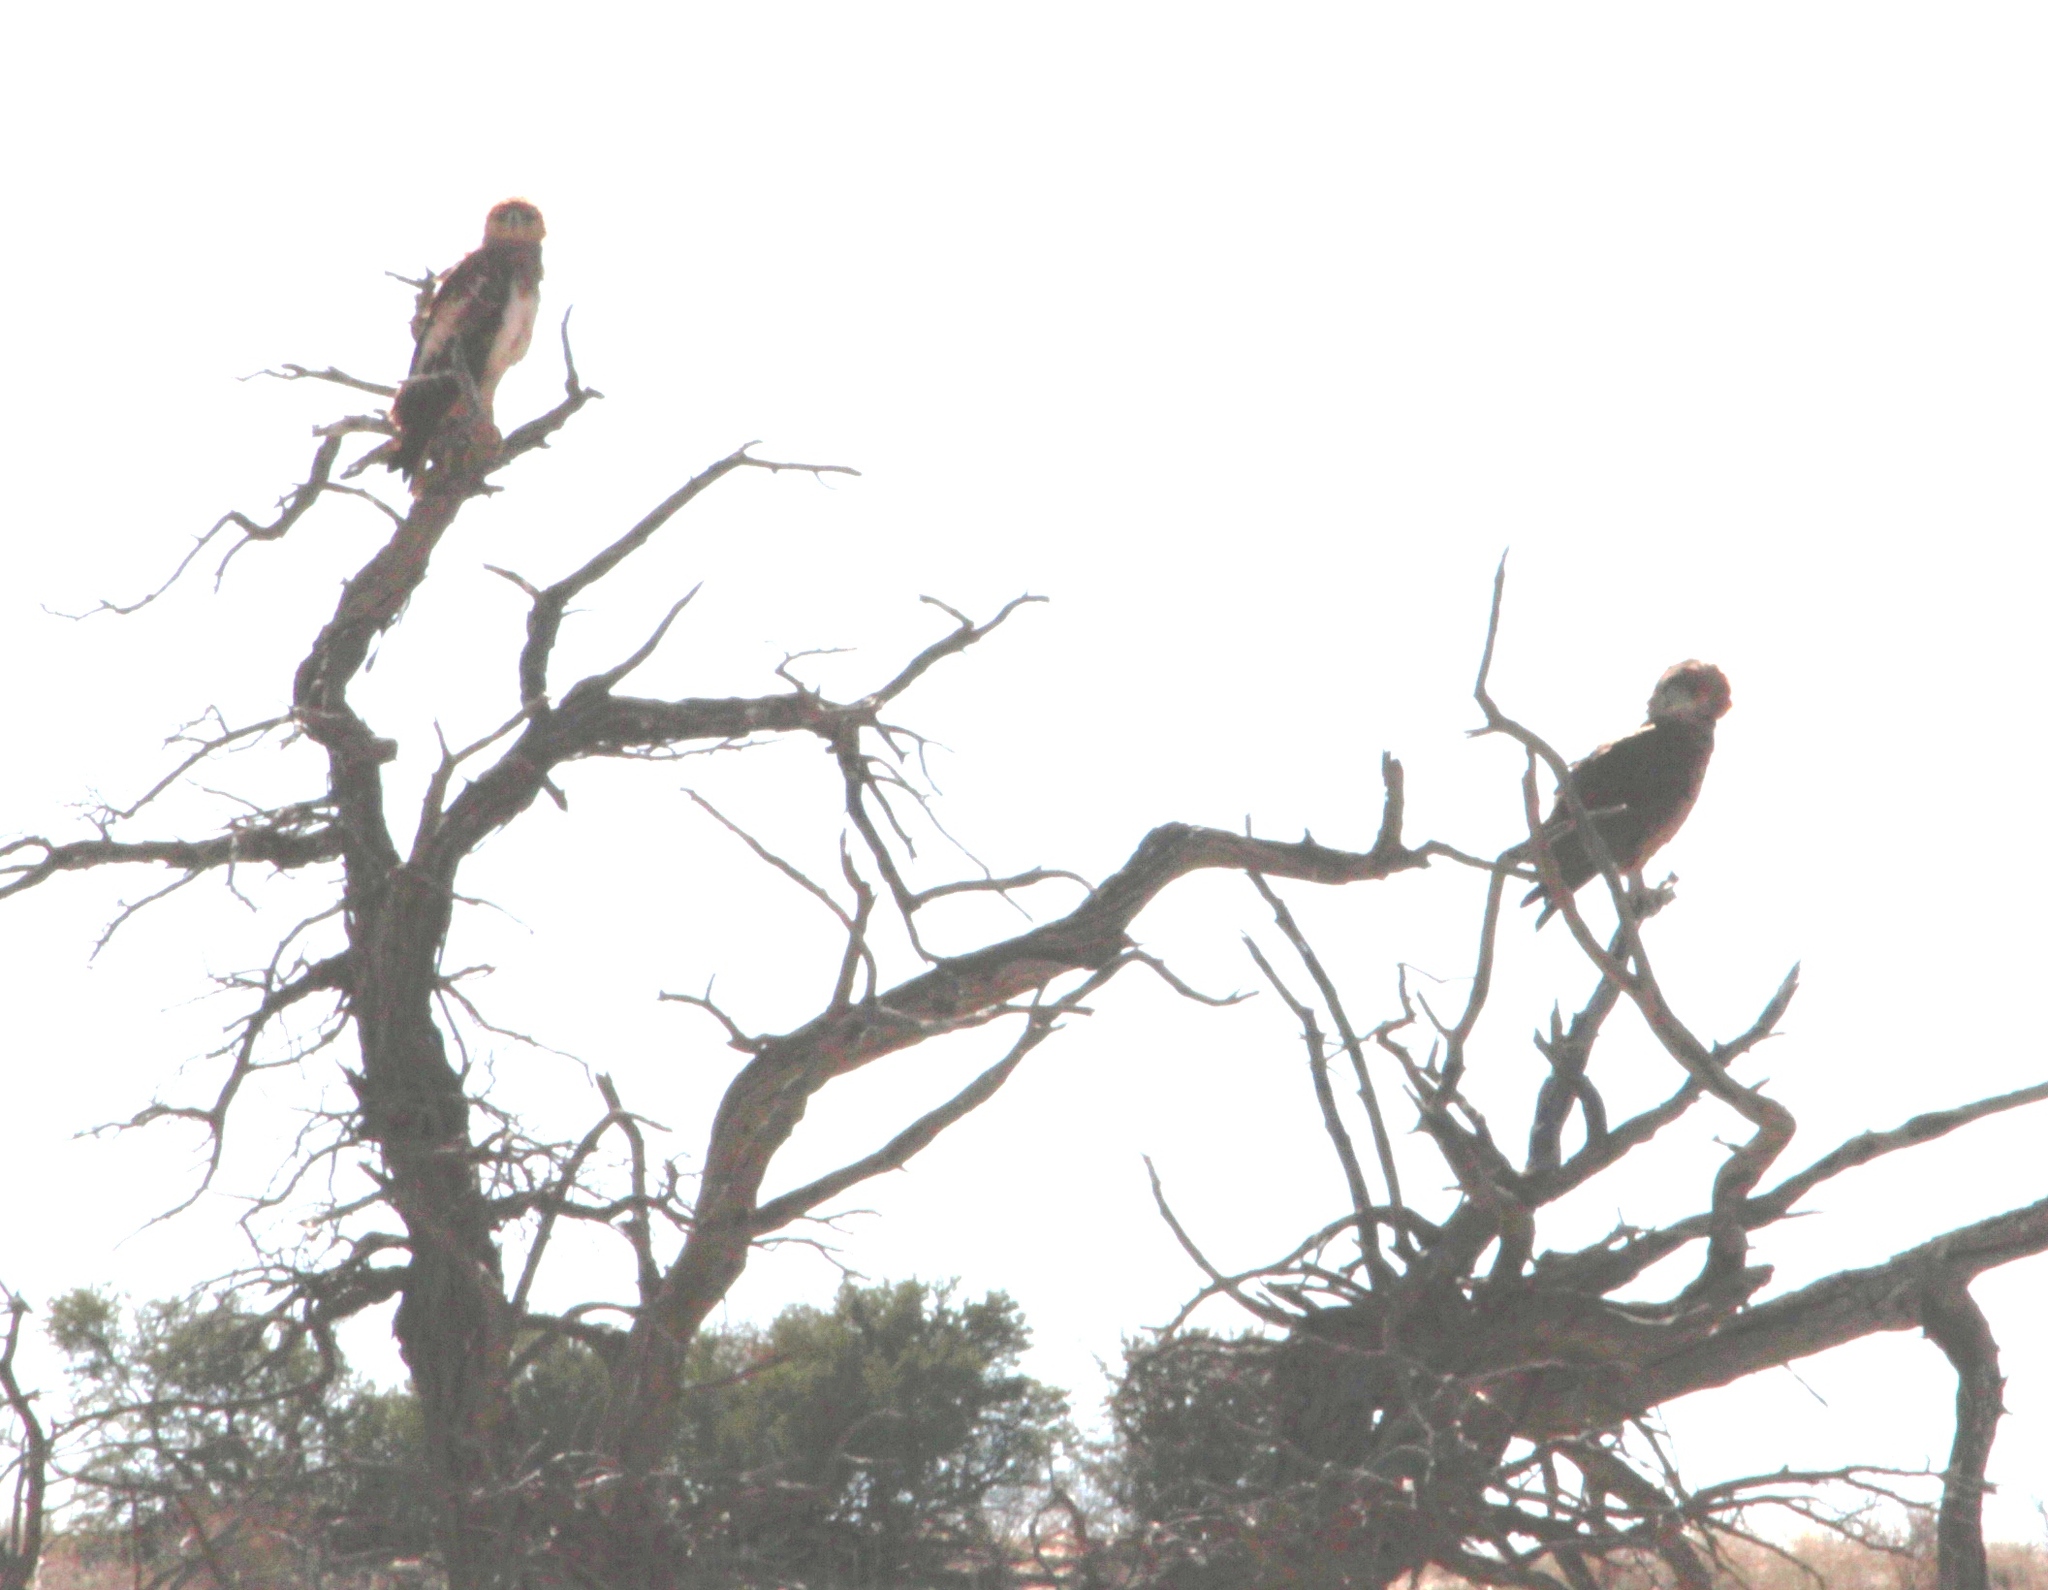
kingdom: Animalia
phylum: Chordata
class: Aves
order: Accipitriformes
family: Accipitridae
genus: Circaetus
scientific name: Circaetus pectoralis
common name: Black-chested snake eagle
